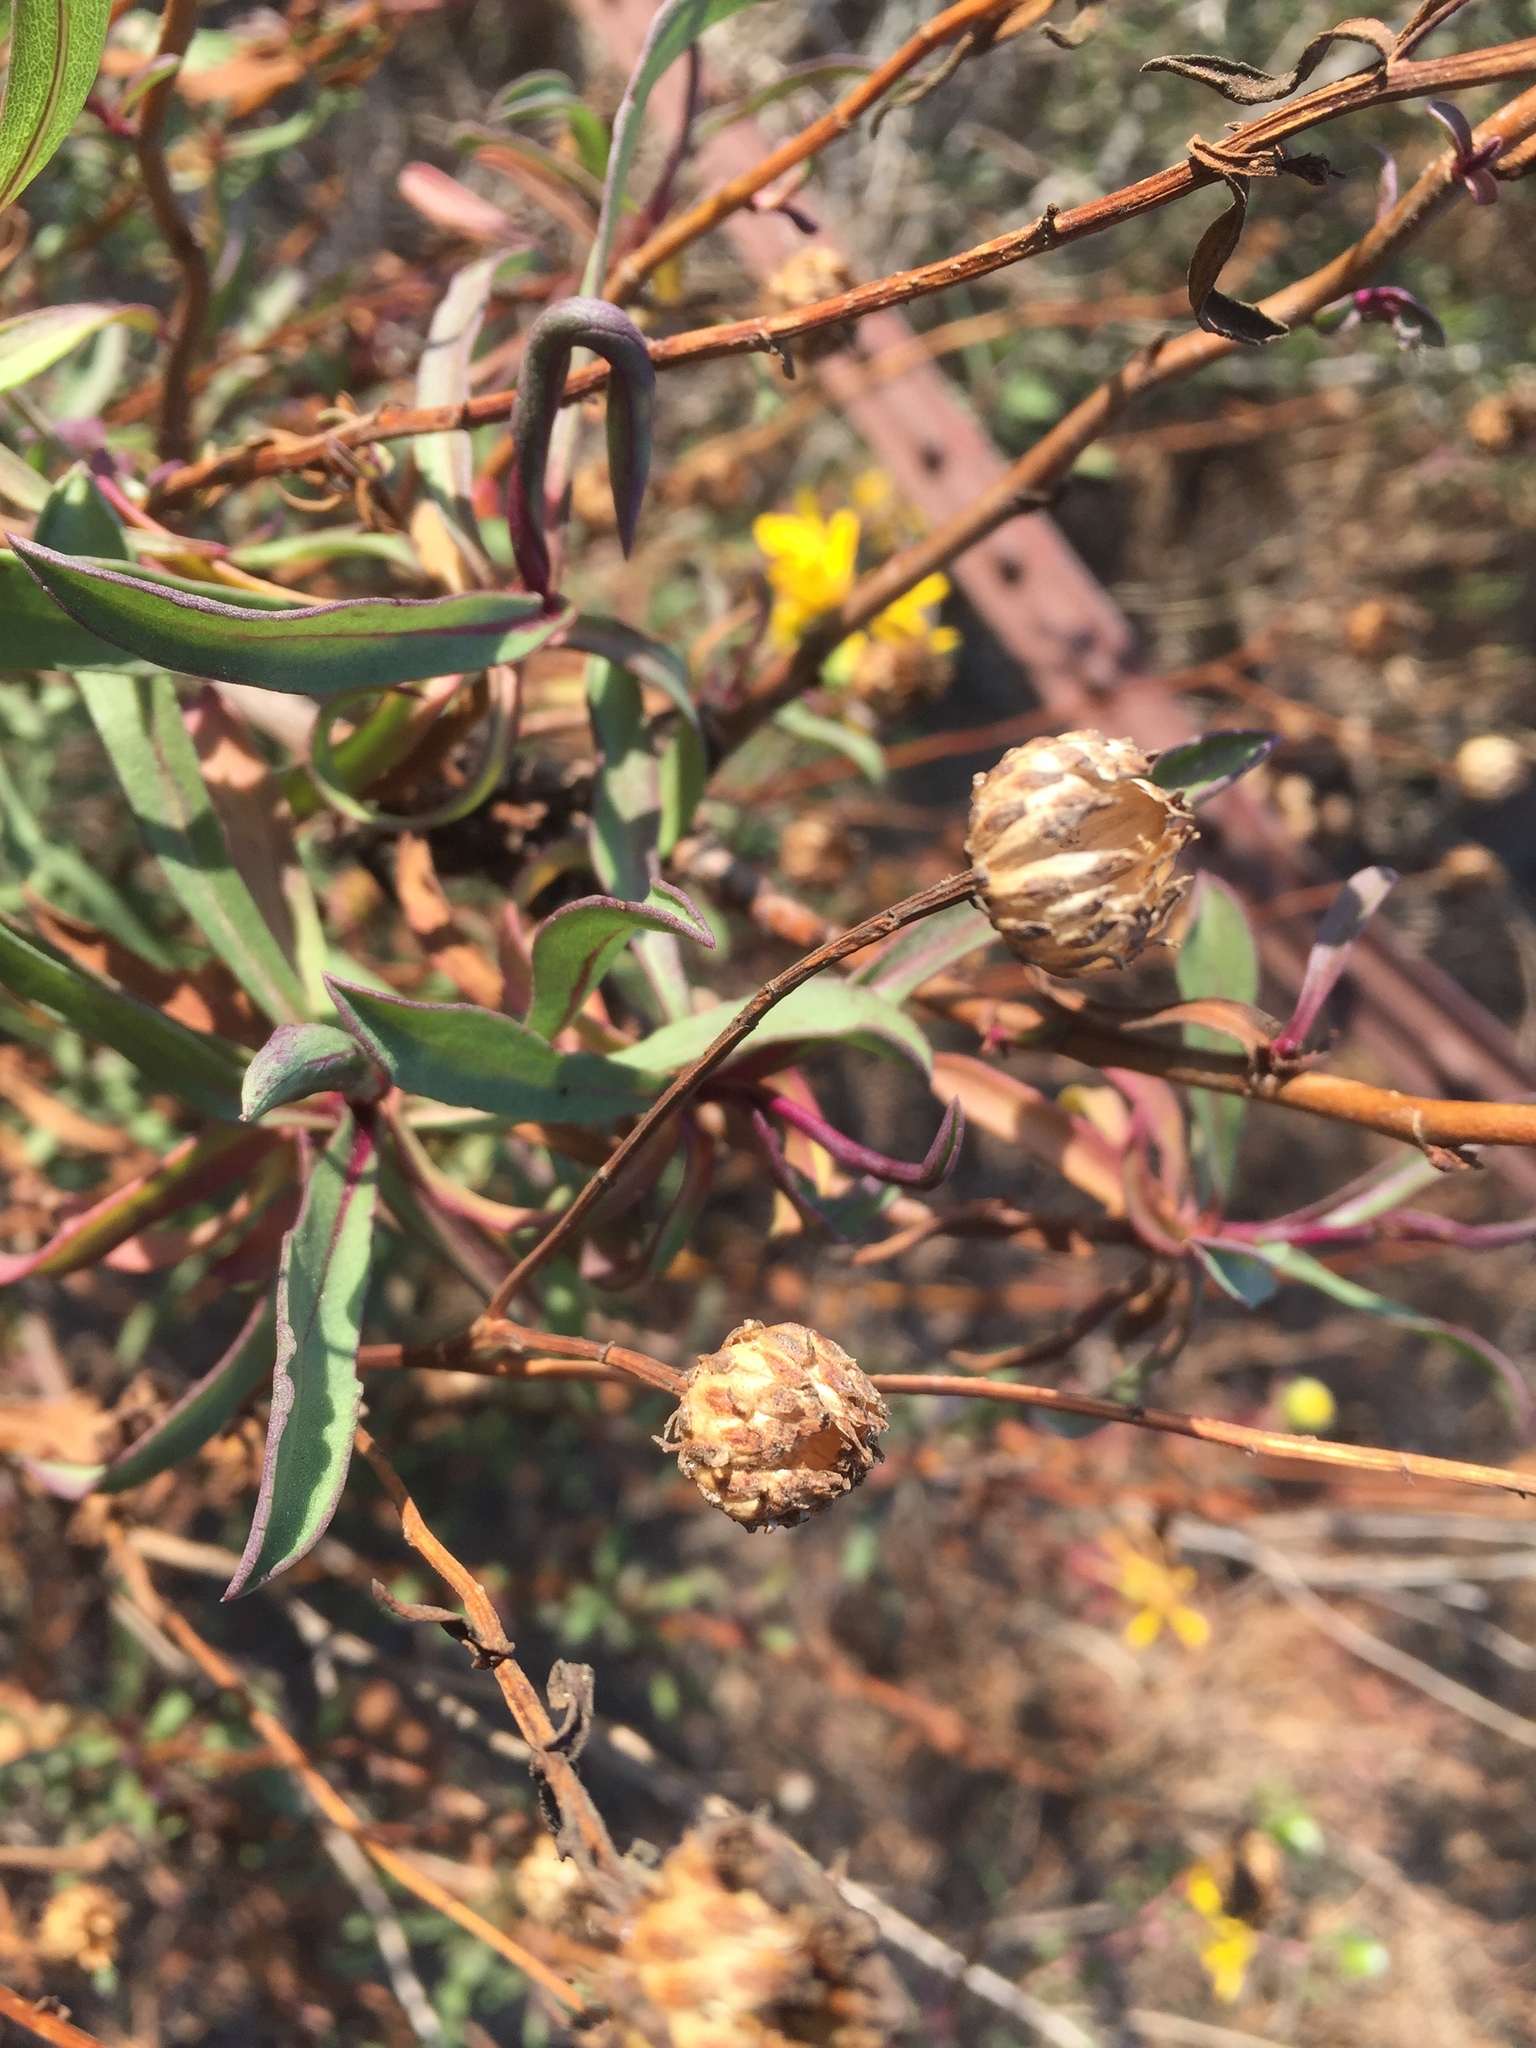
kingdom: Plantae
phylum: Tracheophyta
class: Magnoliopsida
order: Asterales
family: Asteraceae
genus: Grindelia
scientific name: Grindelia hirsutula
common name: Hairy gumweed
